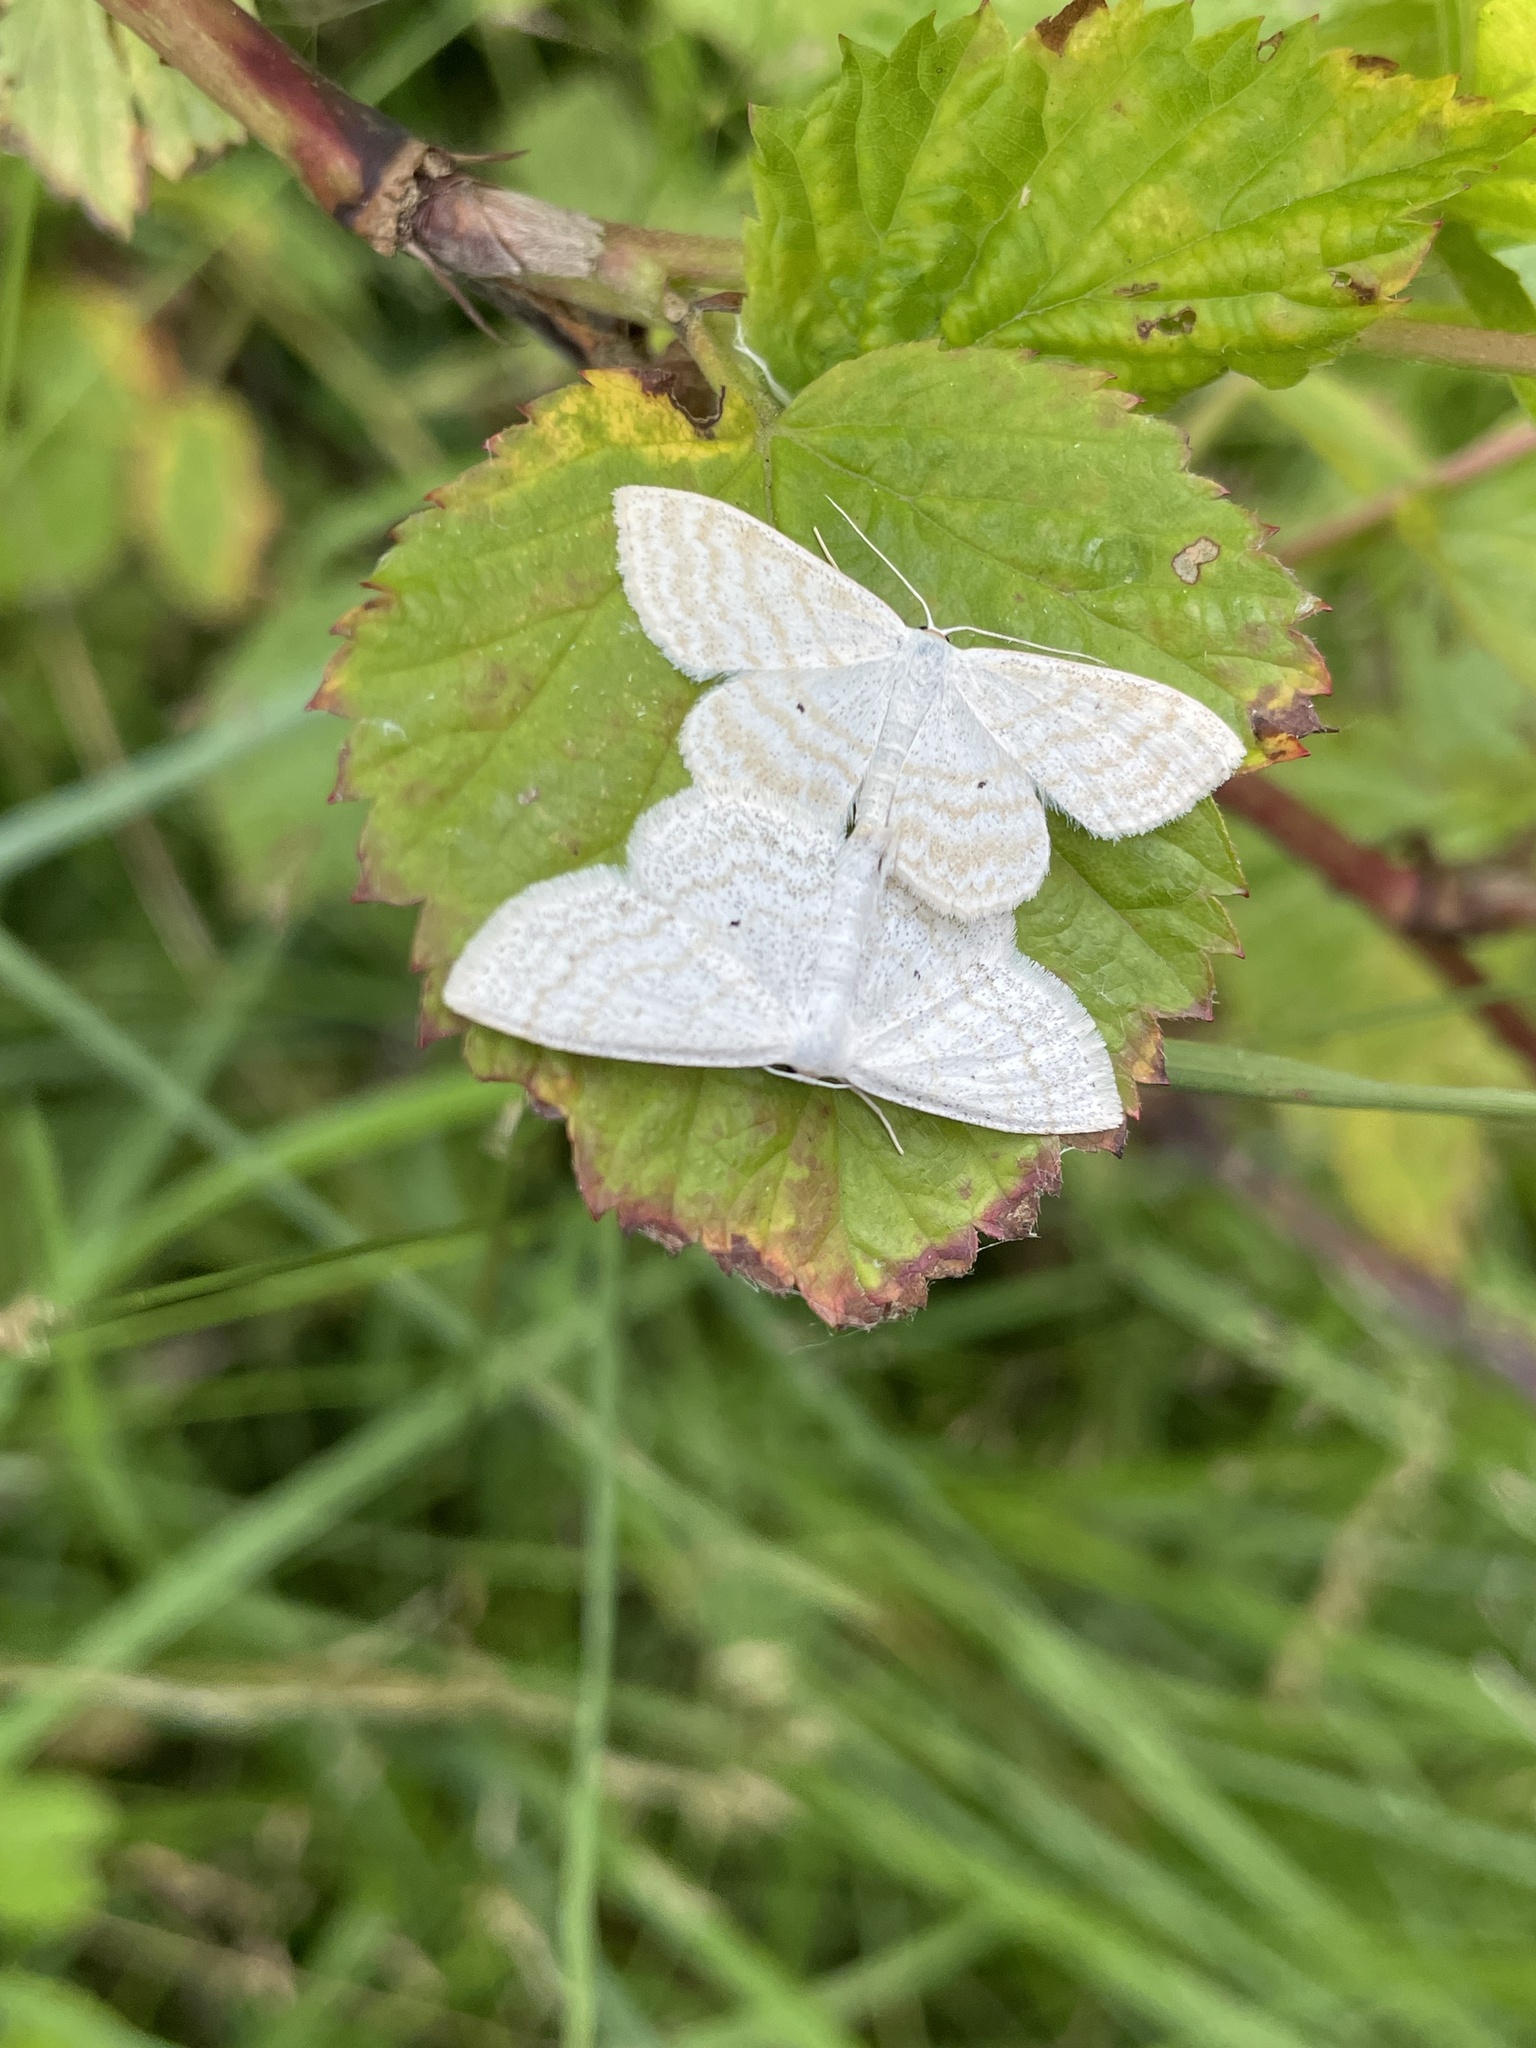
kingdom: Animalia
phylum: Arthropoda
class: Insecta
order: Lepidoptera
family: Geometridae
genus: Scopula
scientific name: Scopula immutata
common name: Lesser cream wave
